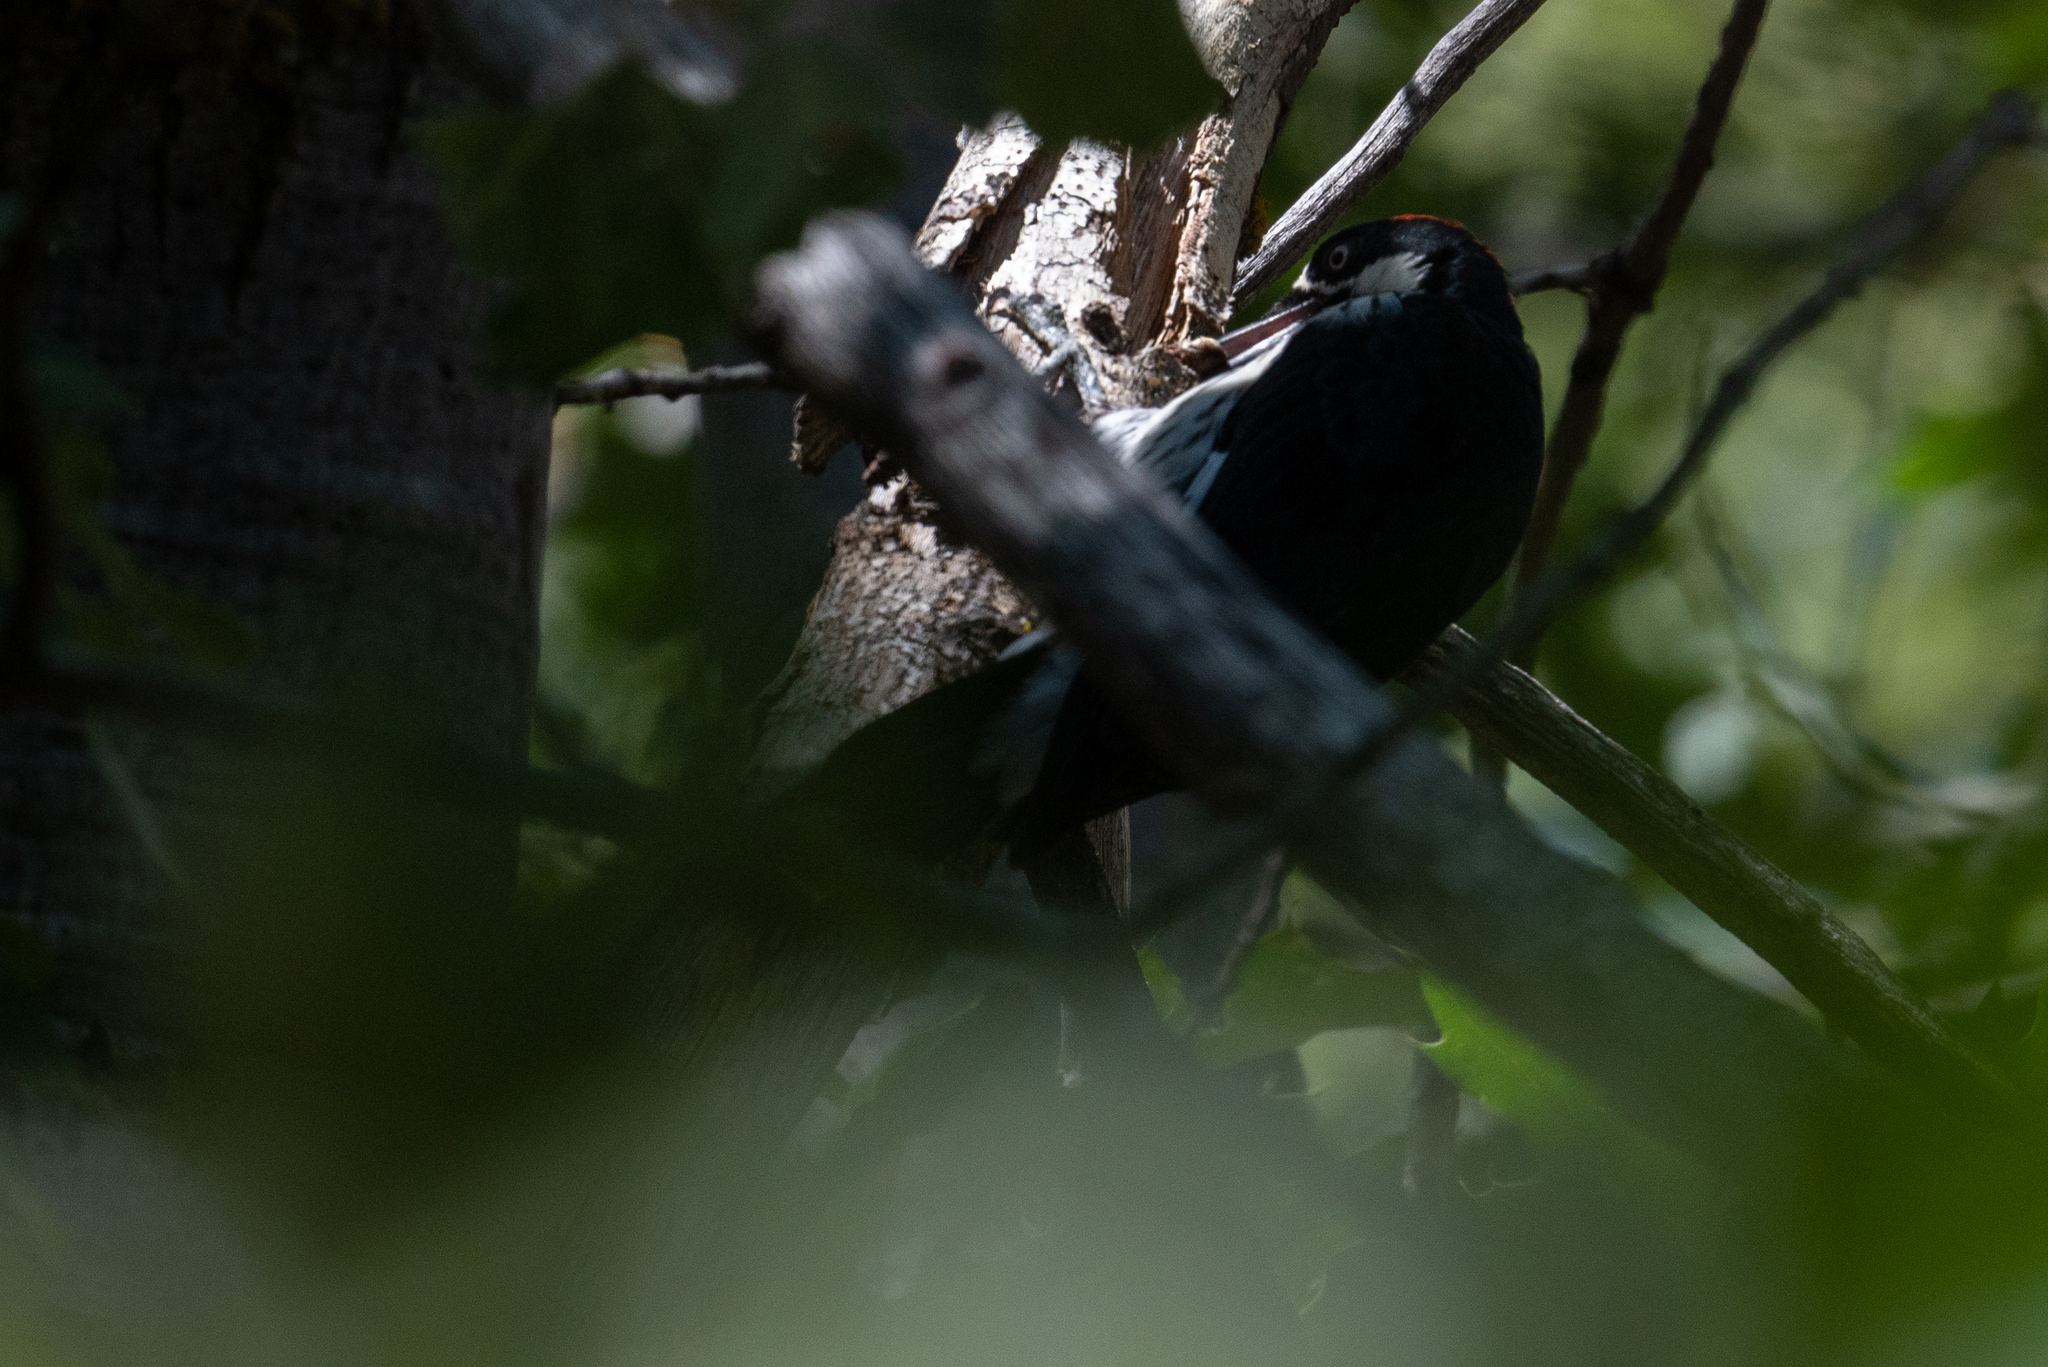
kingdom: Animalia
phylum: Chordata
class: Aves
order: Piciformes
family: Picidae
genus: Melanerpes
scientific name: Melanerpes formicivorus
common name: Acorn woodpecker
